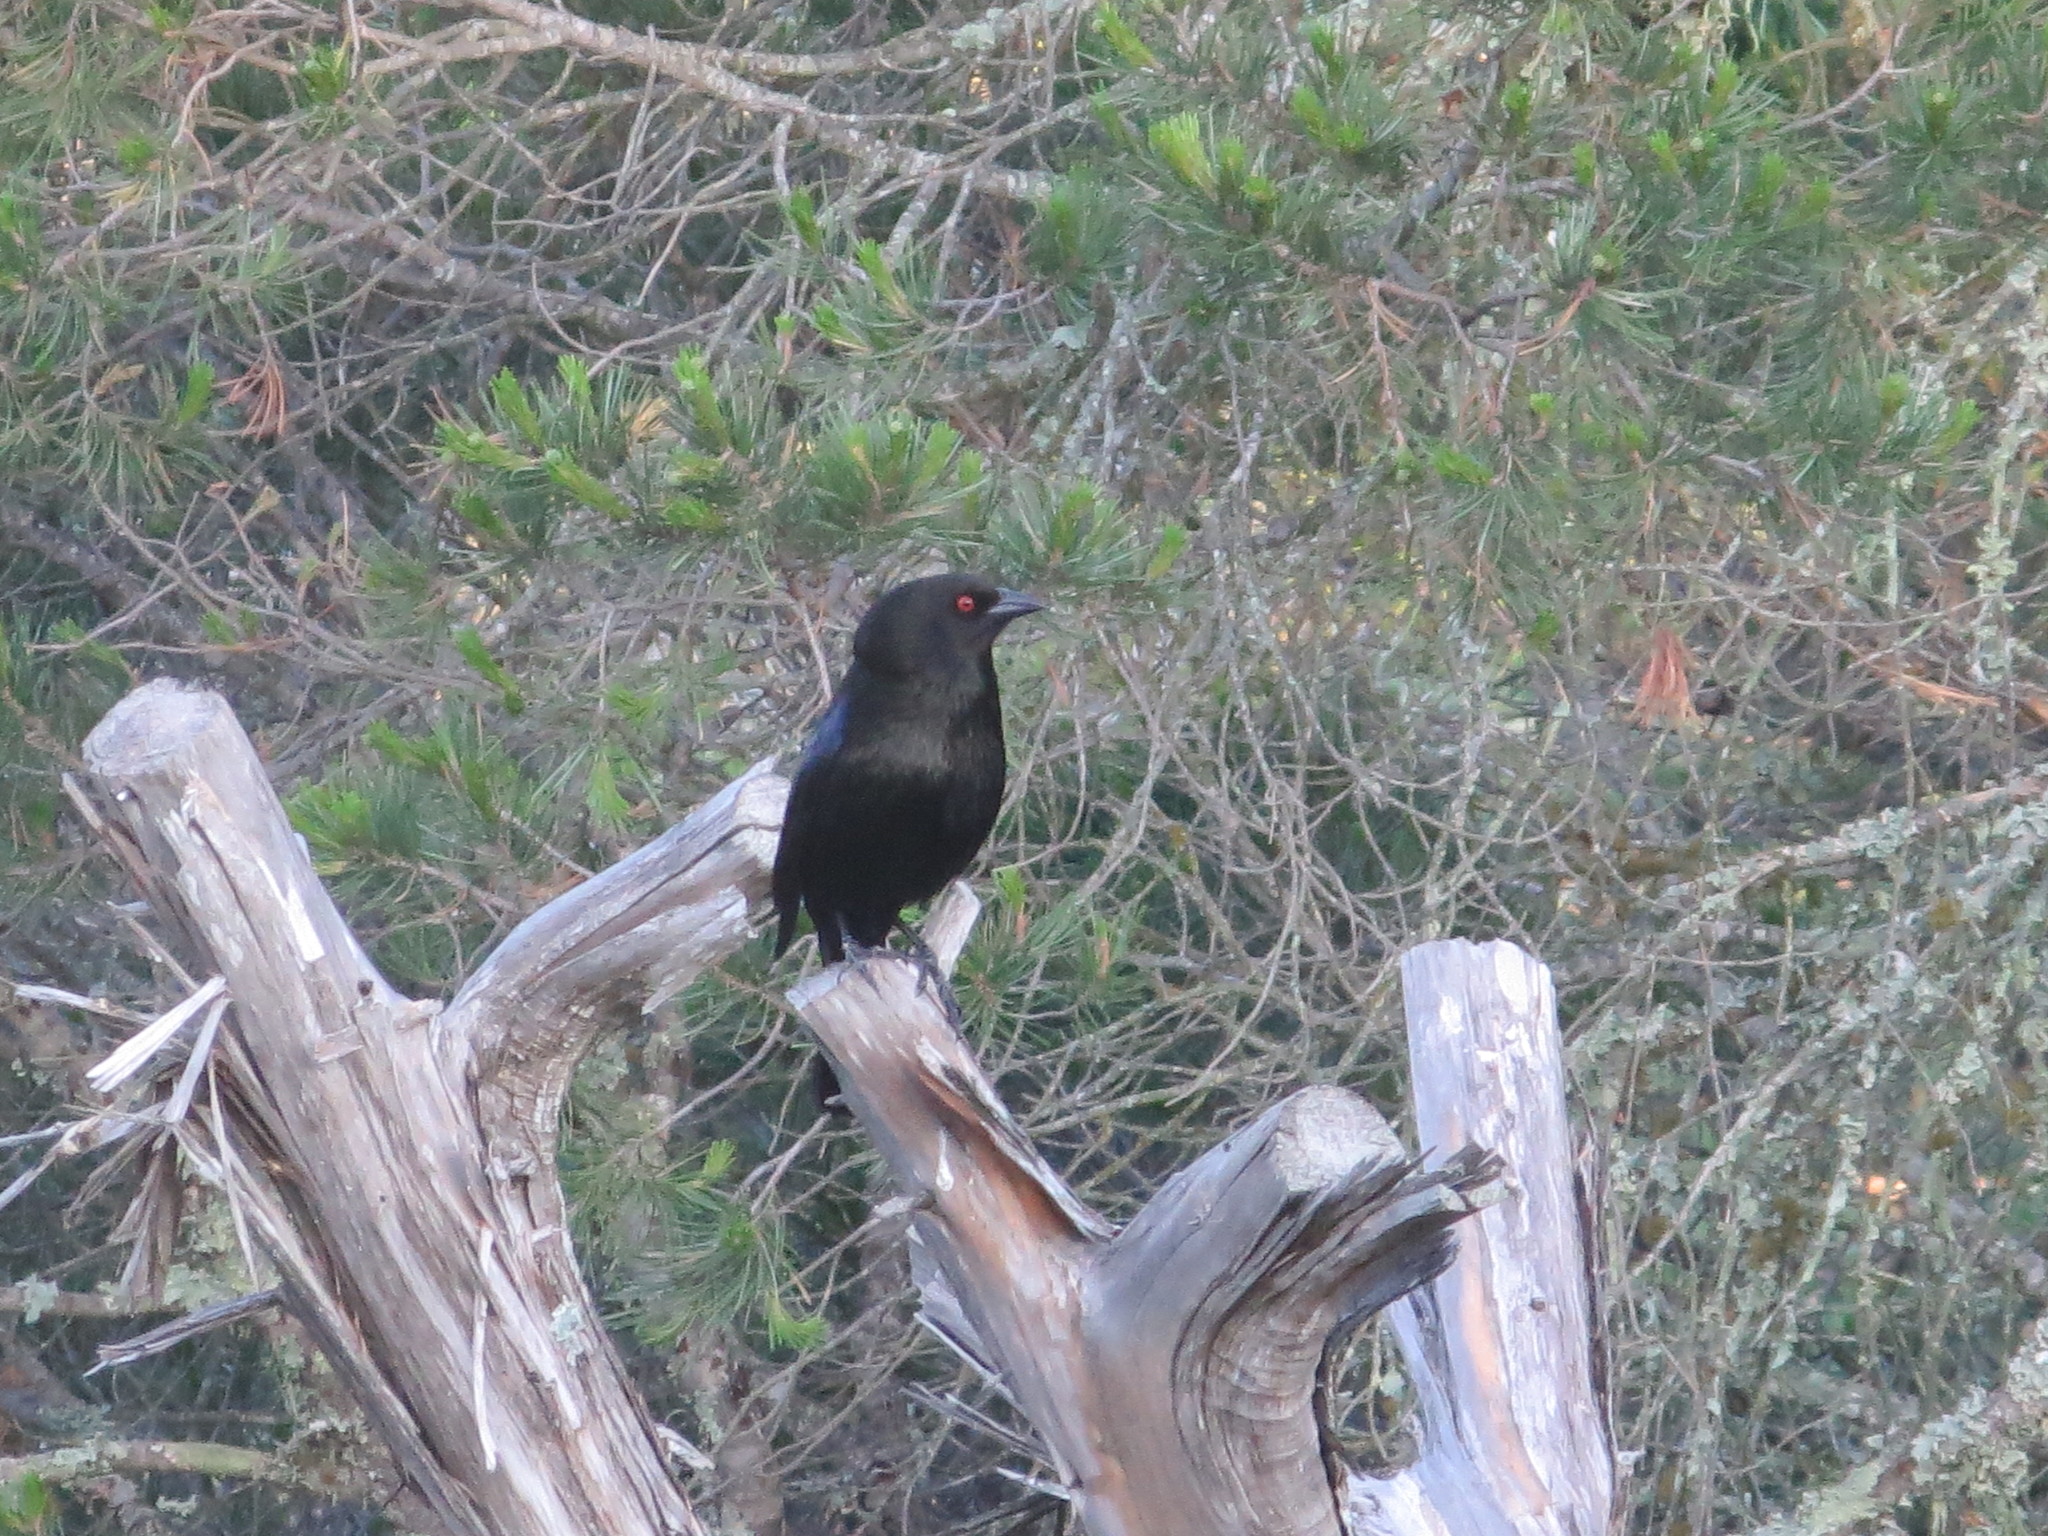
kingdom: Animalia
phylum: Chordata
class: Aves
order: Passeriformes
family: Icteridae
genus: Molothrus
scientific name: Molothrus aeneus
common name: Bronzed cowbird
